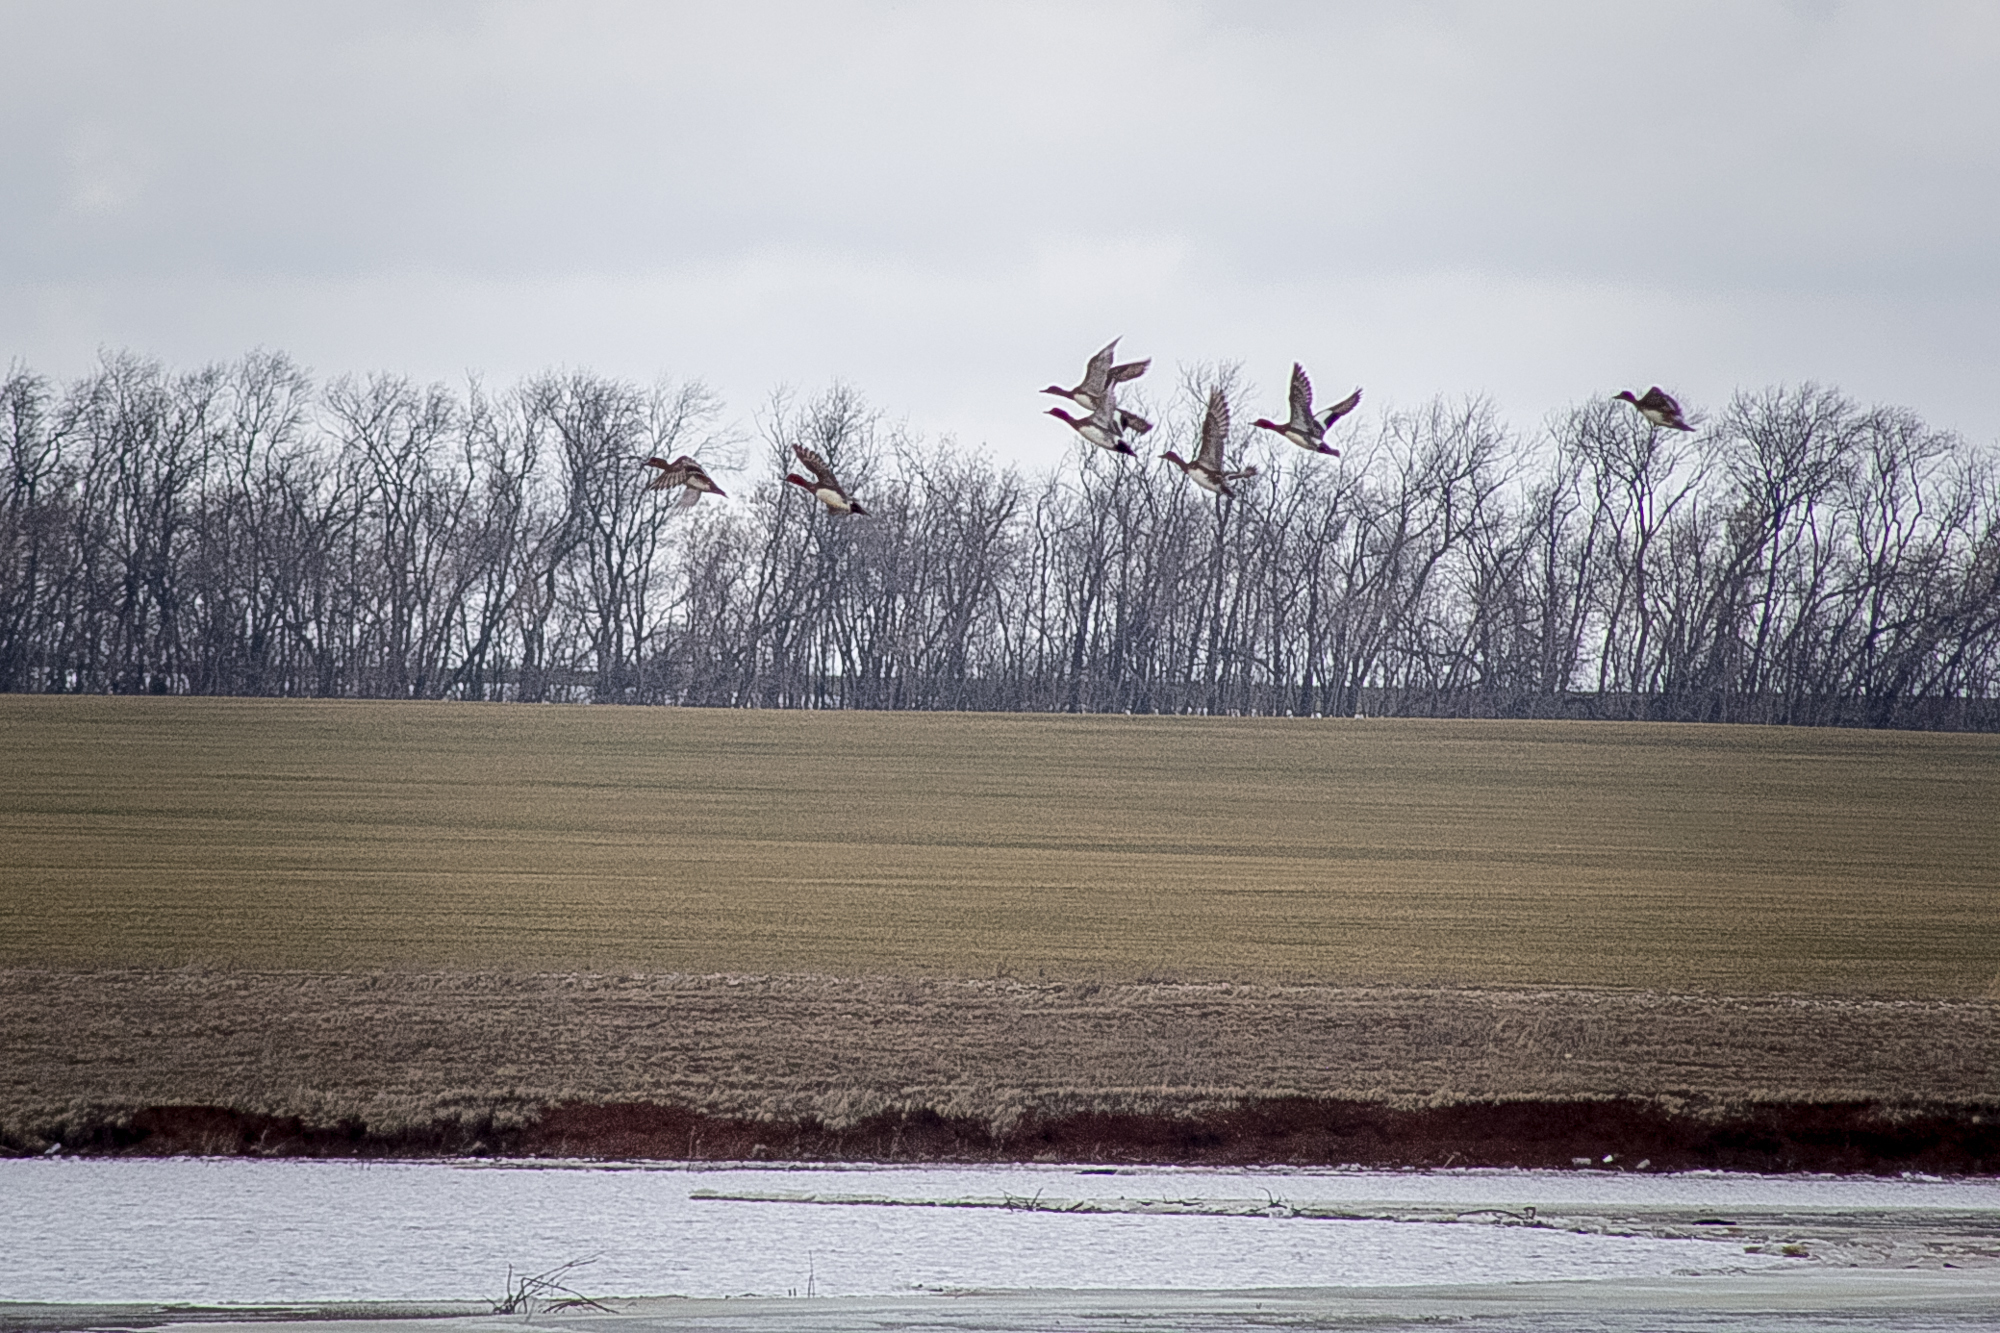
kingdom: Animalia
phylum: Chordata
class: Aves
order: Anseriformes
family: Anatidae
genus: Mareca
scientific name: Mareca penelope
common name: Eurasian wigeon
